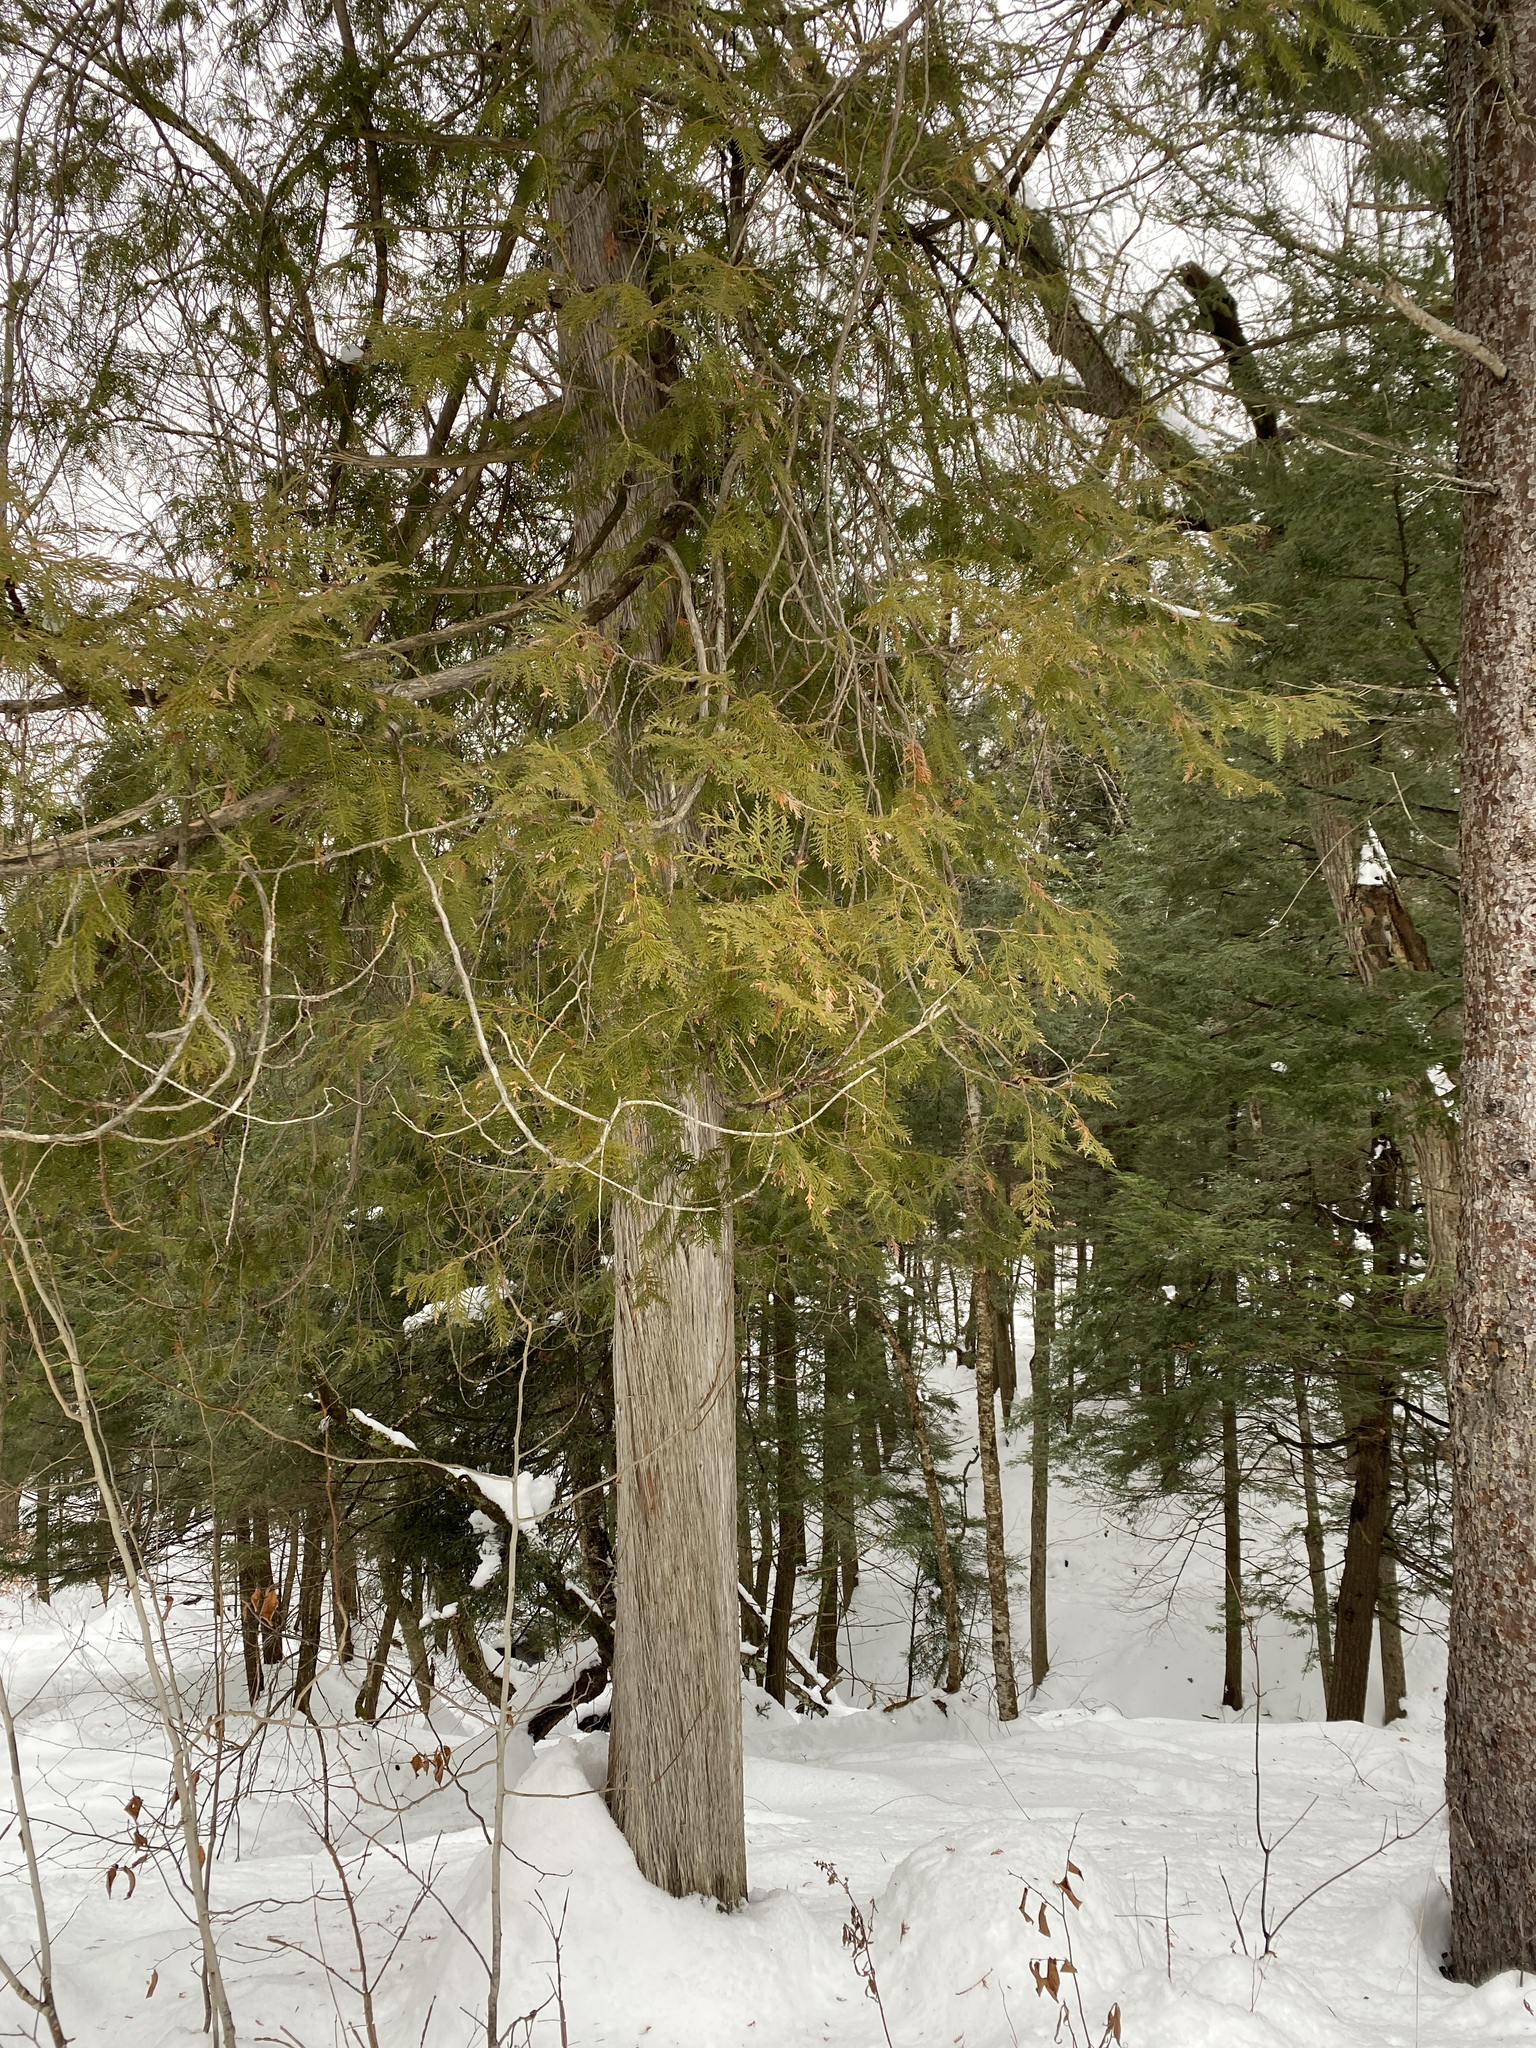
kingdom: Plantae
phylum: Tracheophyta
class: Pinopsida
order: Pinales
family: Cupressaceae
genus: Thuja
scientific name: Thuja occidentalis
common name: Northern white-cedar
